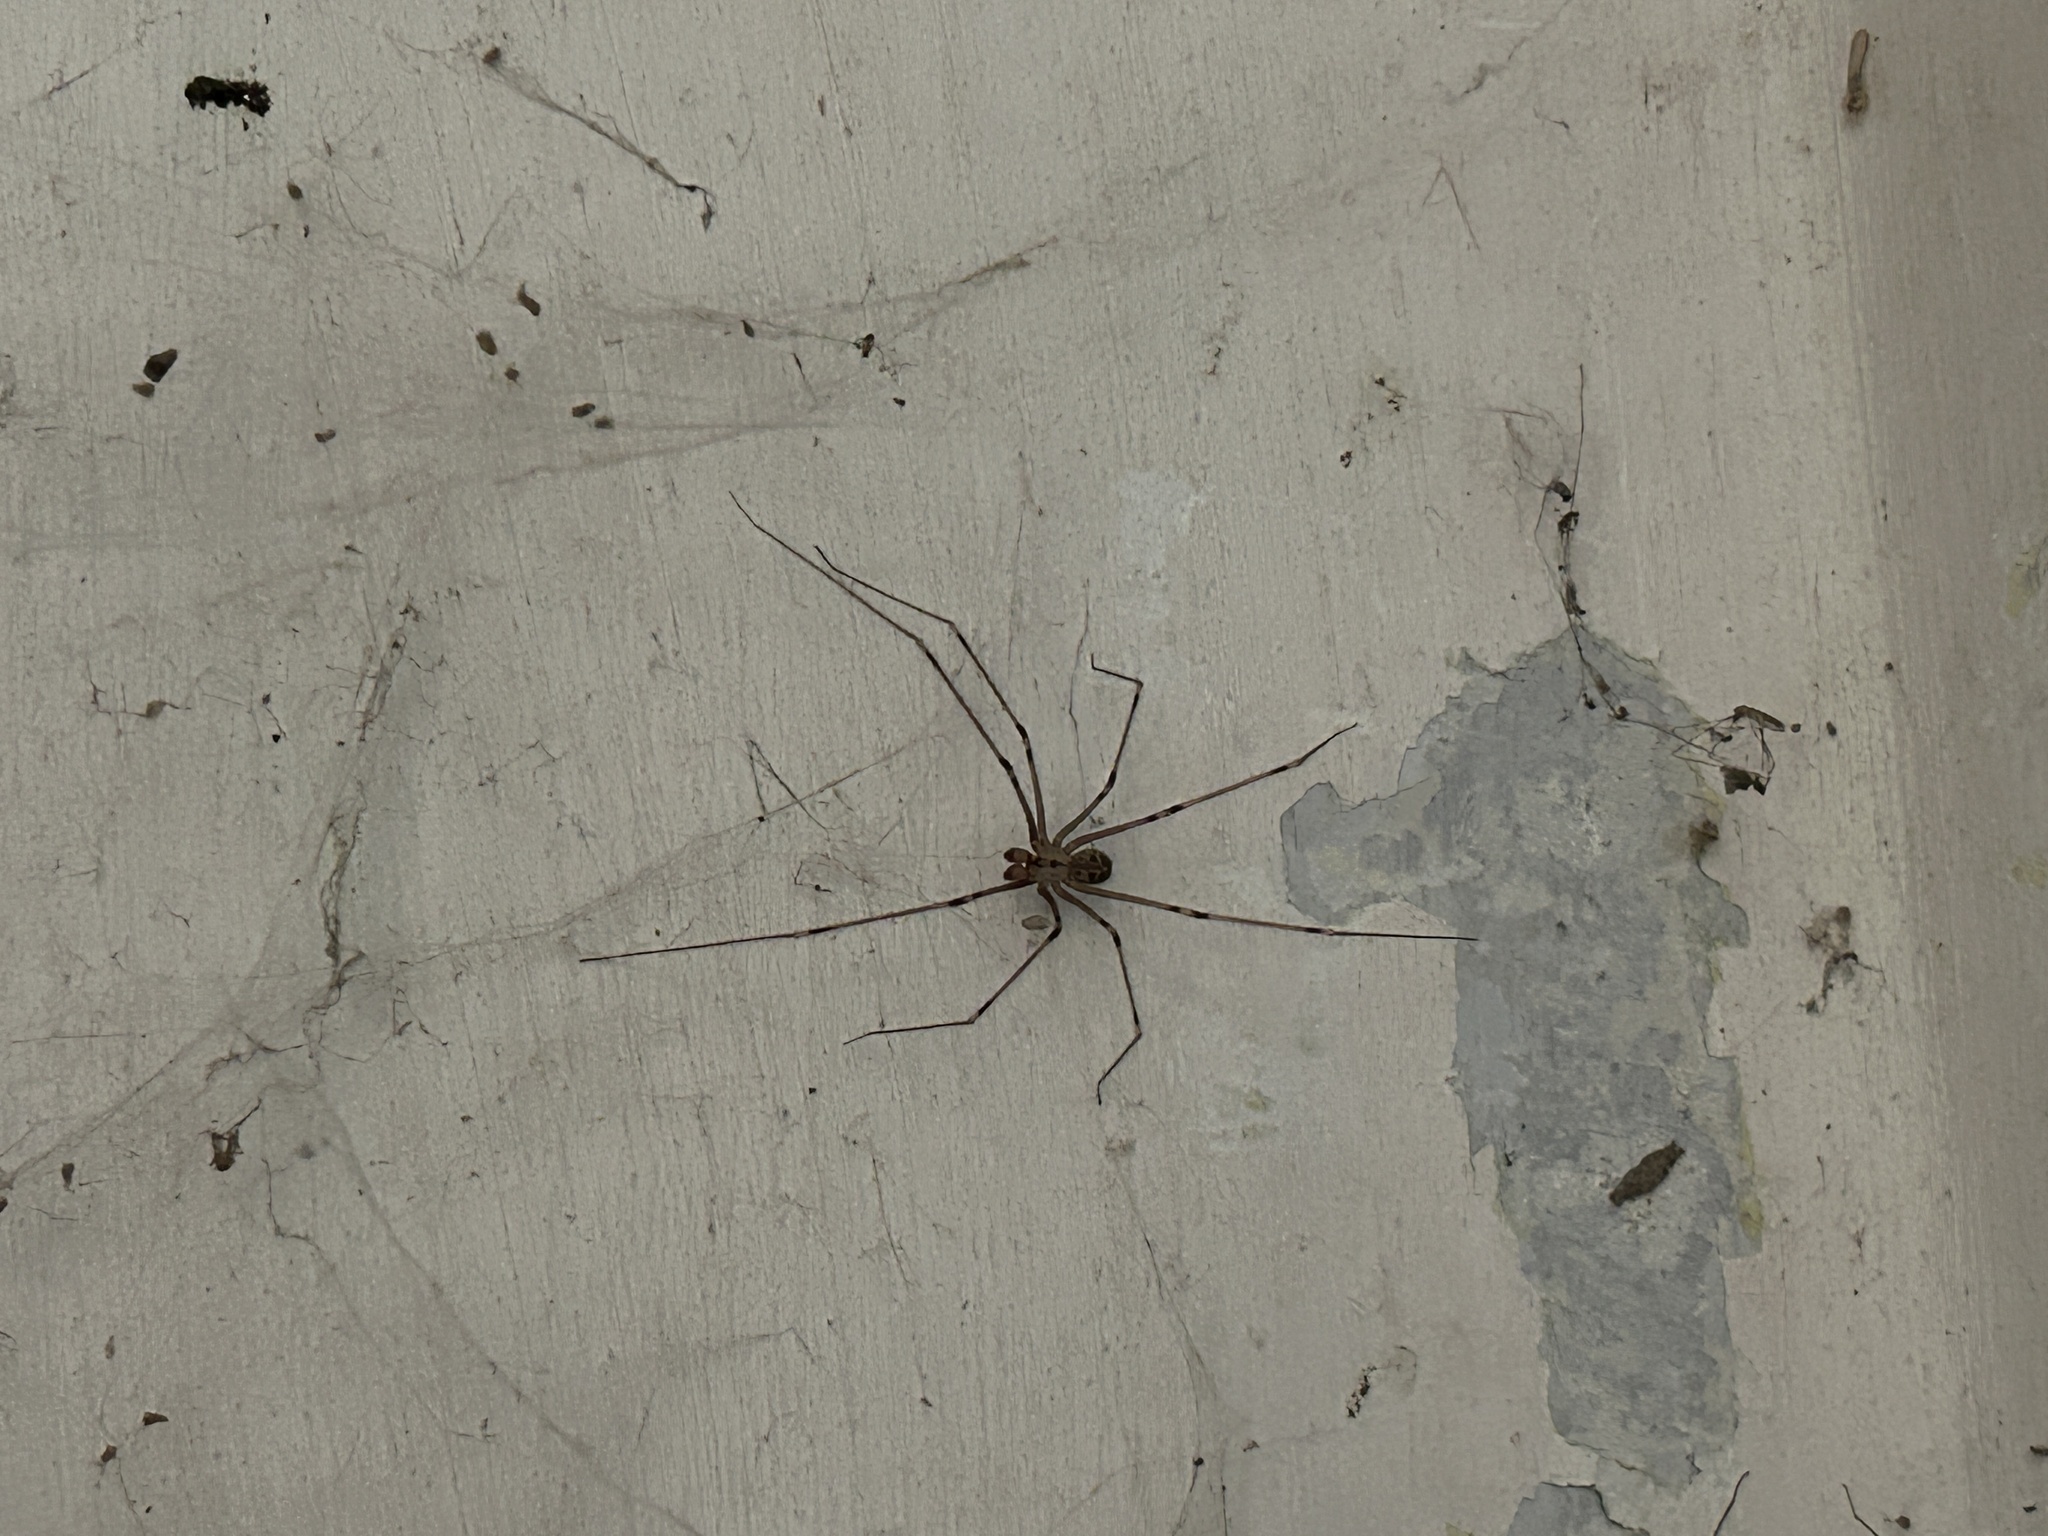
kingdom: Animalia
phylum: Arthropoda
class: Arachnida
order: Araneae
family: Pholcidae
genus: Crossopriza
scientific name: Crossopriza lyoni
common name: Cellar spiders
